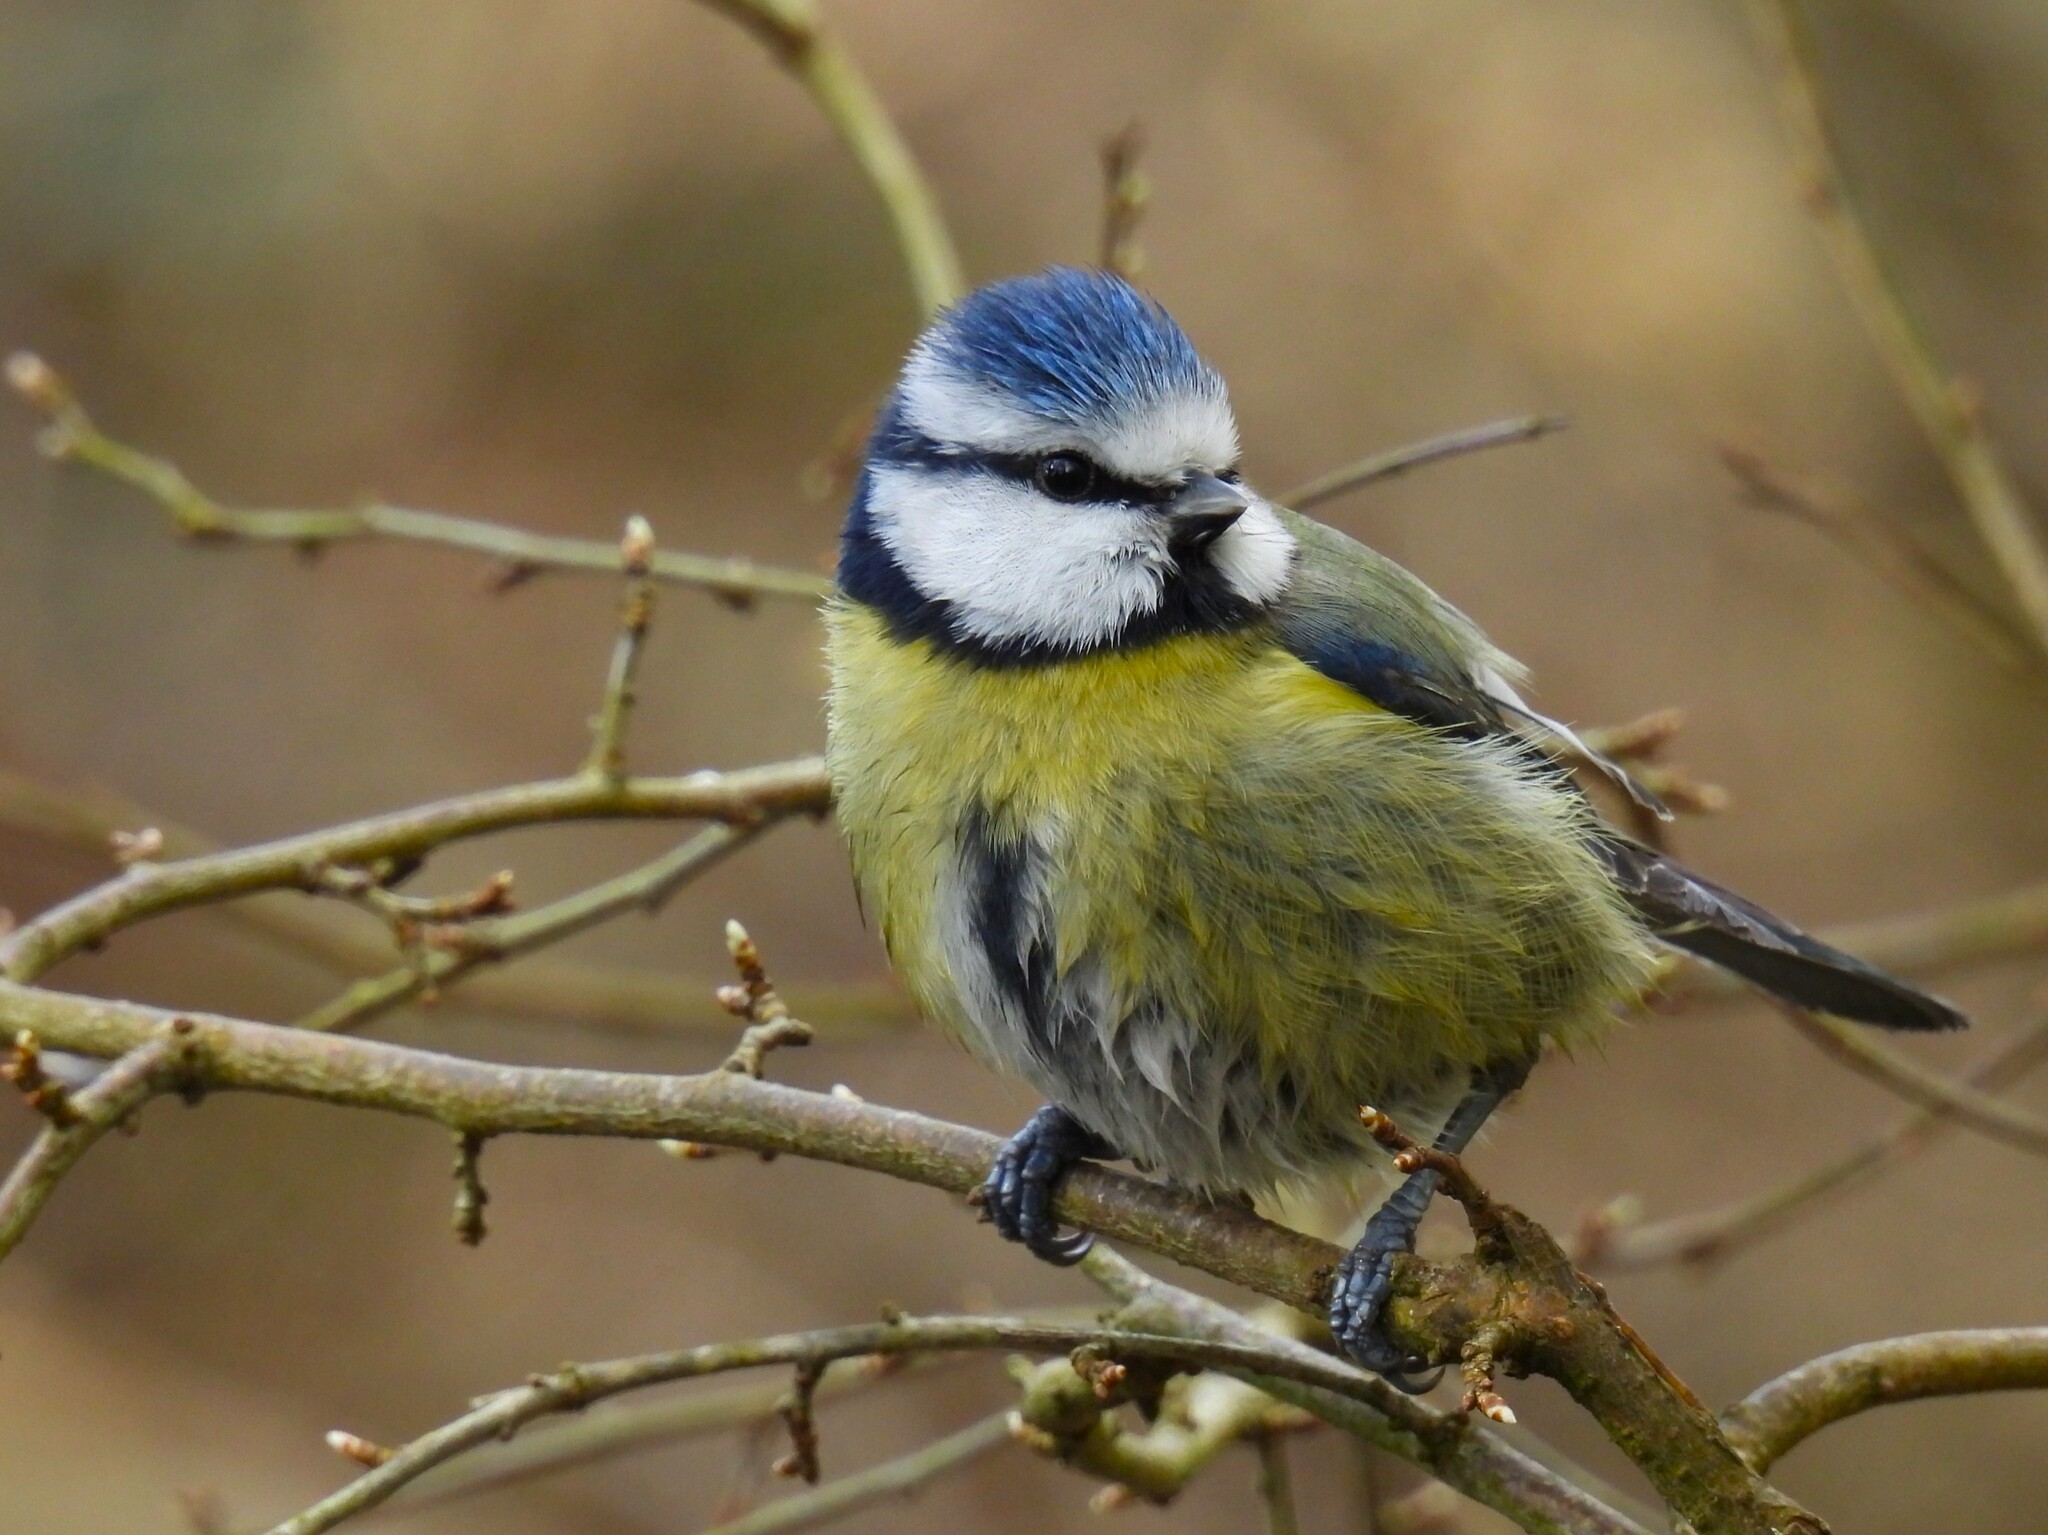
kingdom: Animalia
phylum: Chordata
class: Aves
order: Passeriformes
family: Paridae
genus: Cyanistes
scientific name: Cyanistes caeruleus
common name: Eurasian blue tit
